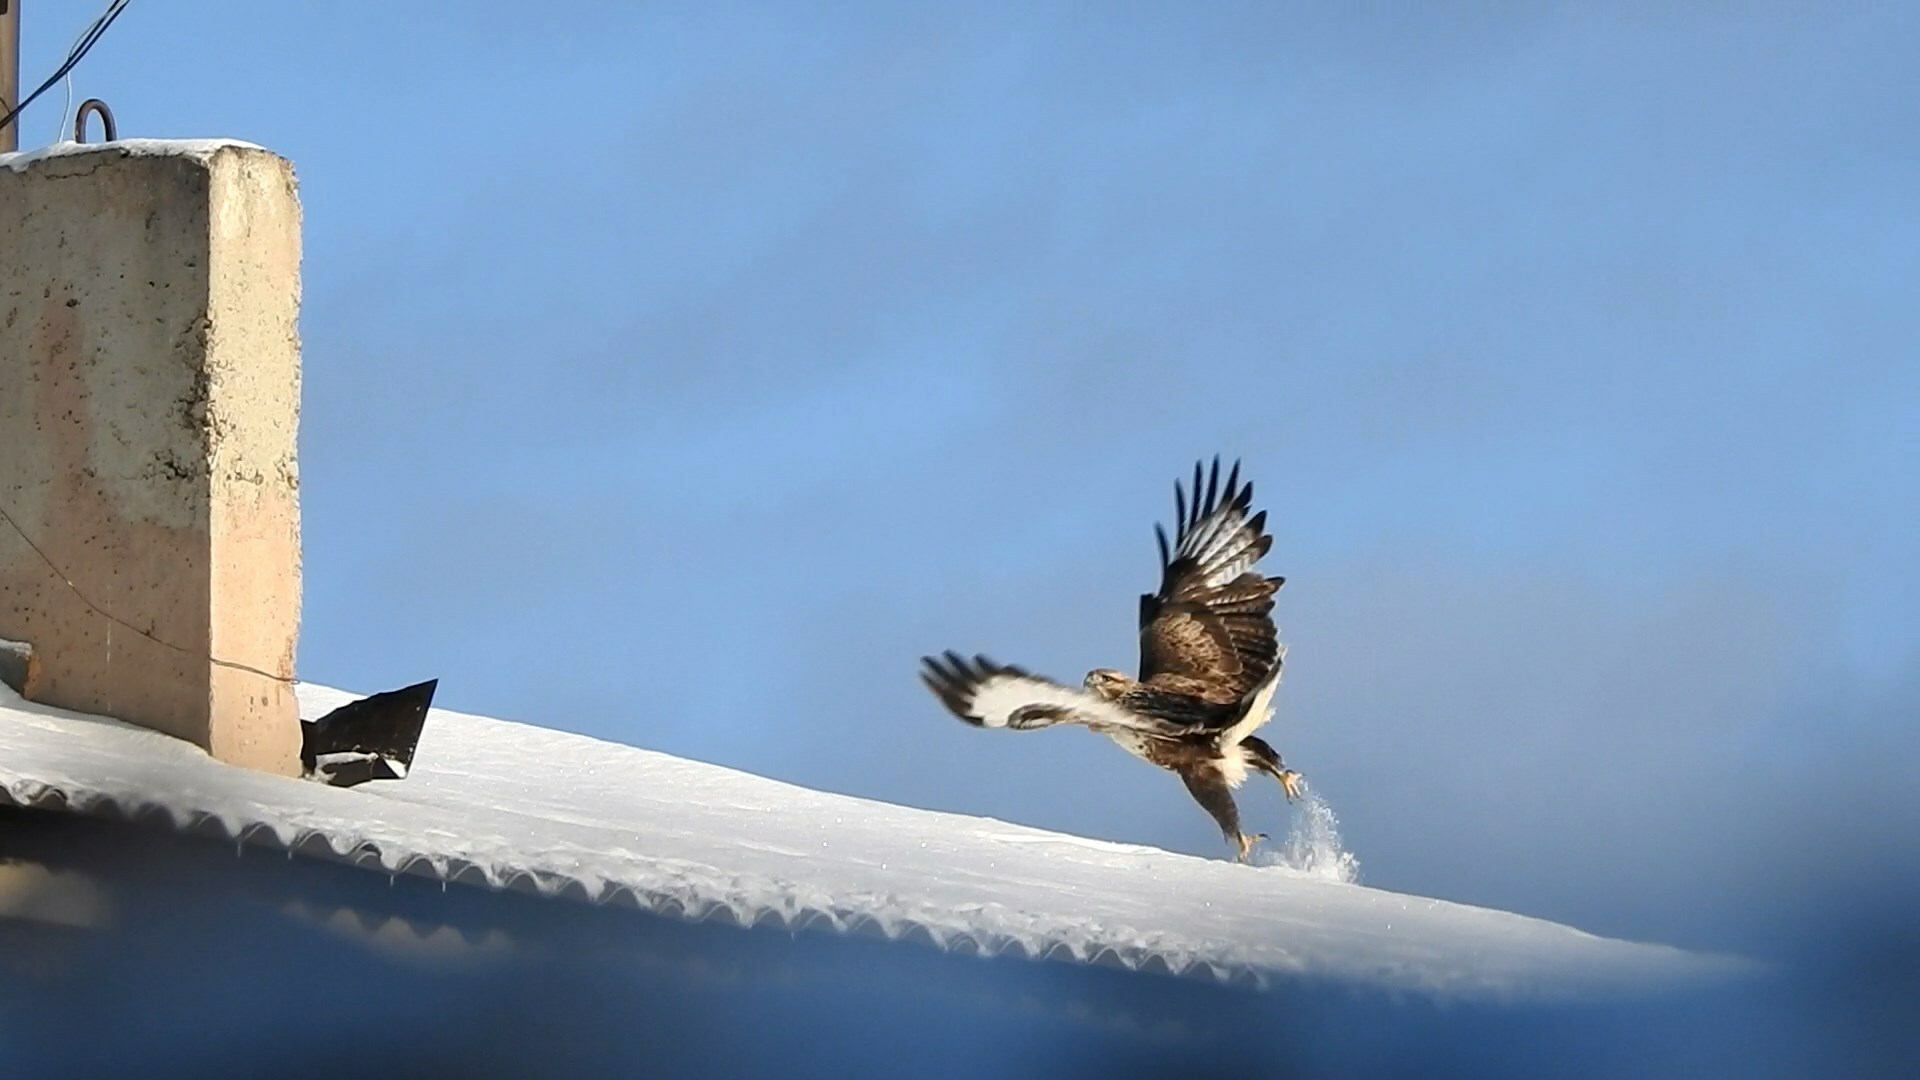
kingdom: Animalia
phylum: Chordata
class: Aves
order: Accipitriformes
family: Accipitridae
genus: Buteo
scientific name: Buteo hemilasius
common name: Upland buzzard
